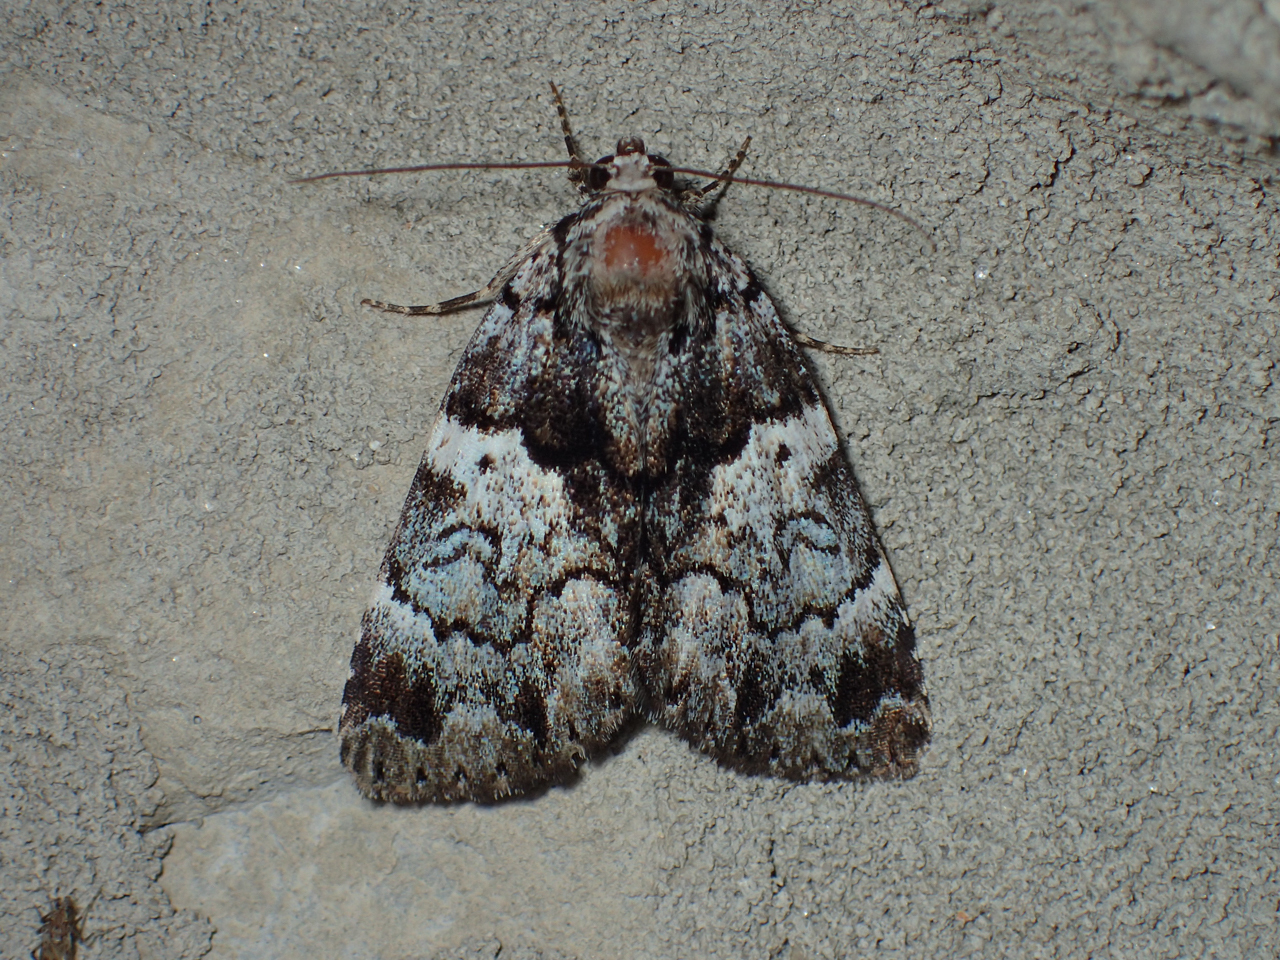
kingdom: Animalia
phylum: Arthropoda
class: Insecta
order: Lepidoptera
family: Erebidae
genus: Allotria
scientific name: Allotria elonympha
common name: False underwing
